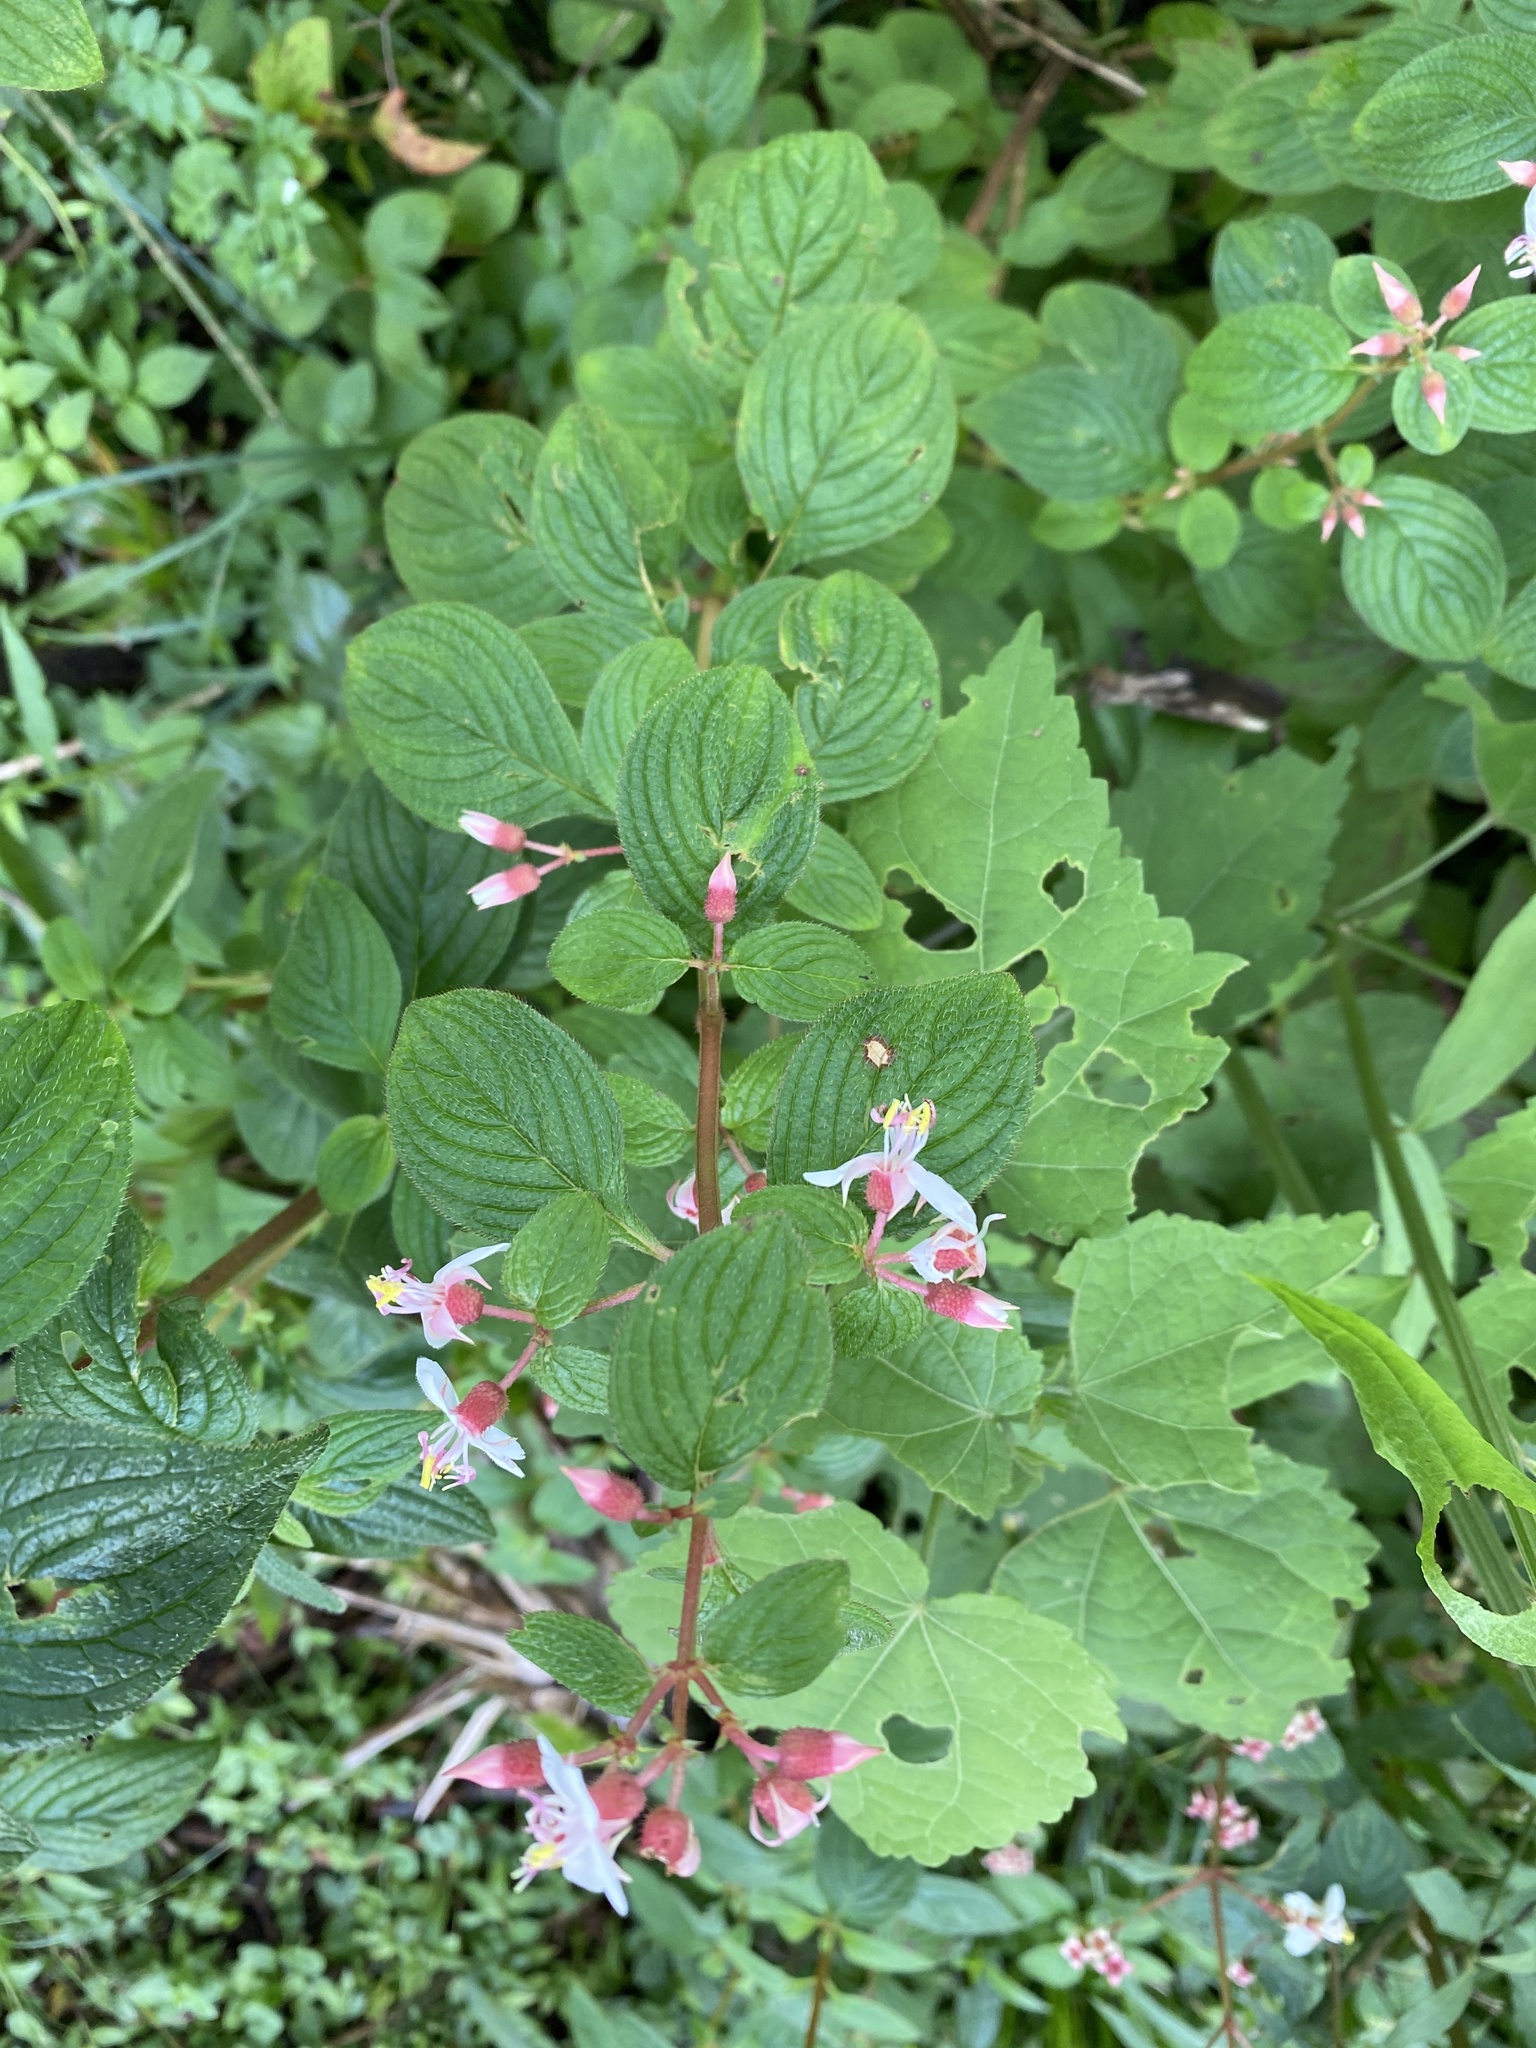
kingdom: Plantae
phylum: Tracheophyta
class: Magnoliopsida
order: Myrtales
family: Melastomataceae
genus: Heterocentron
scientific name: Heterocentron subtriplinervium
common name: Pearl flower
